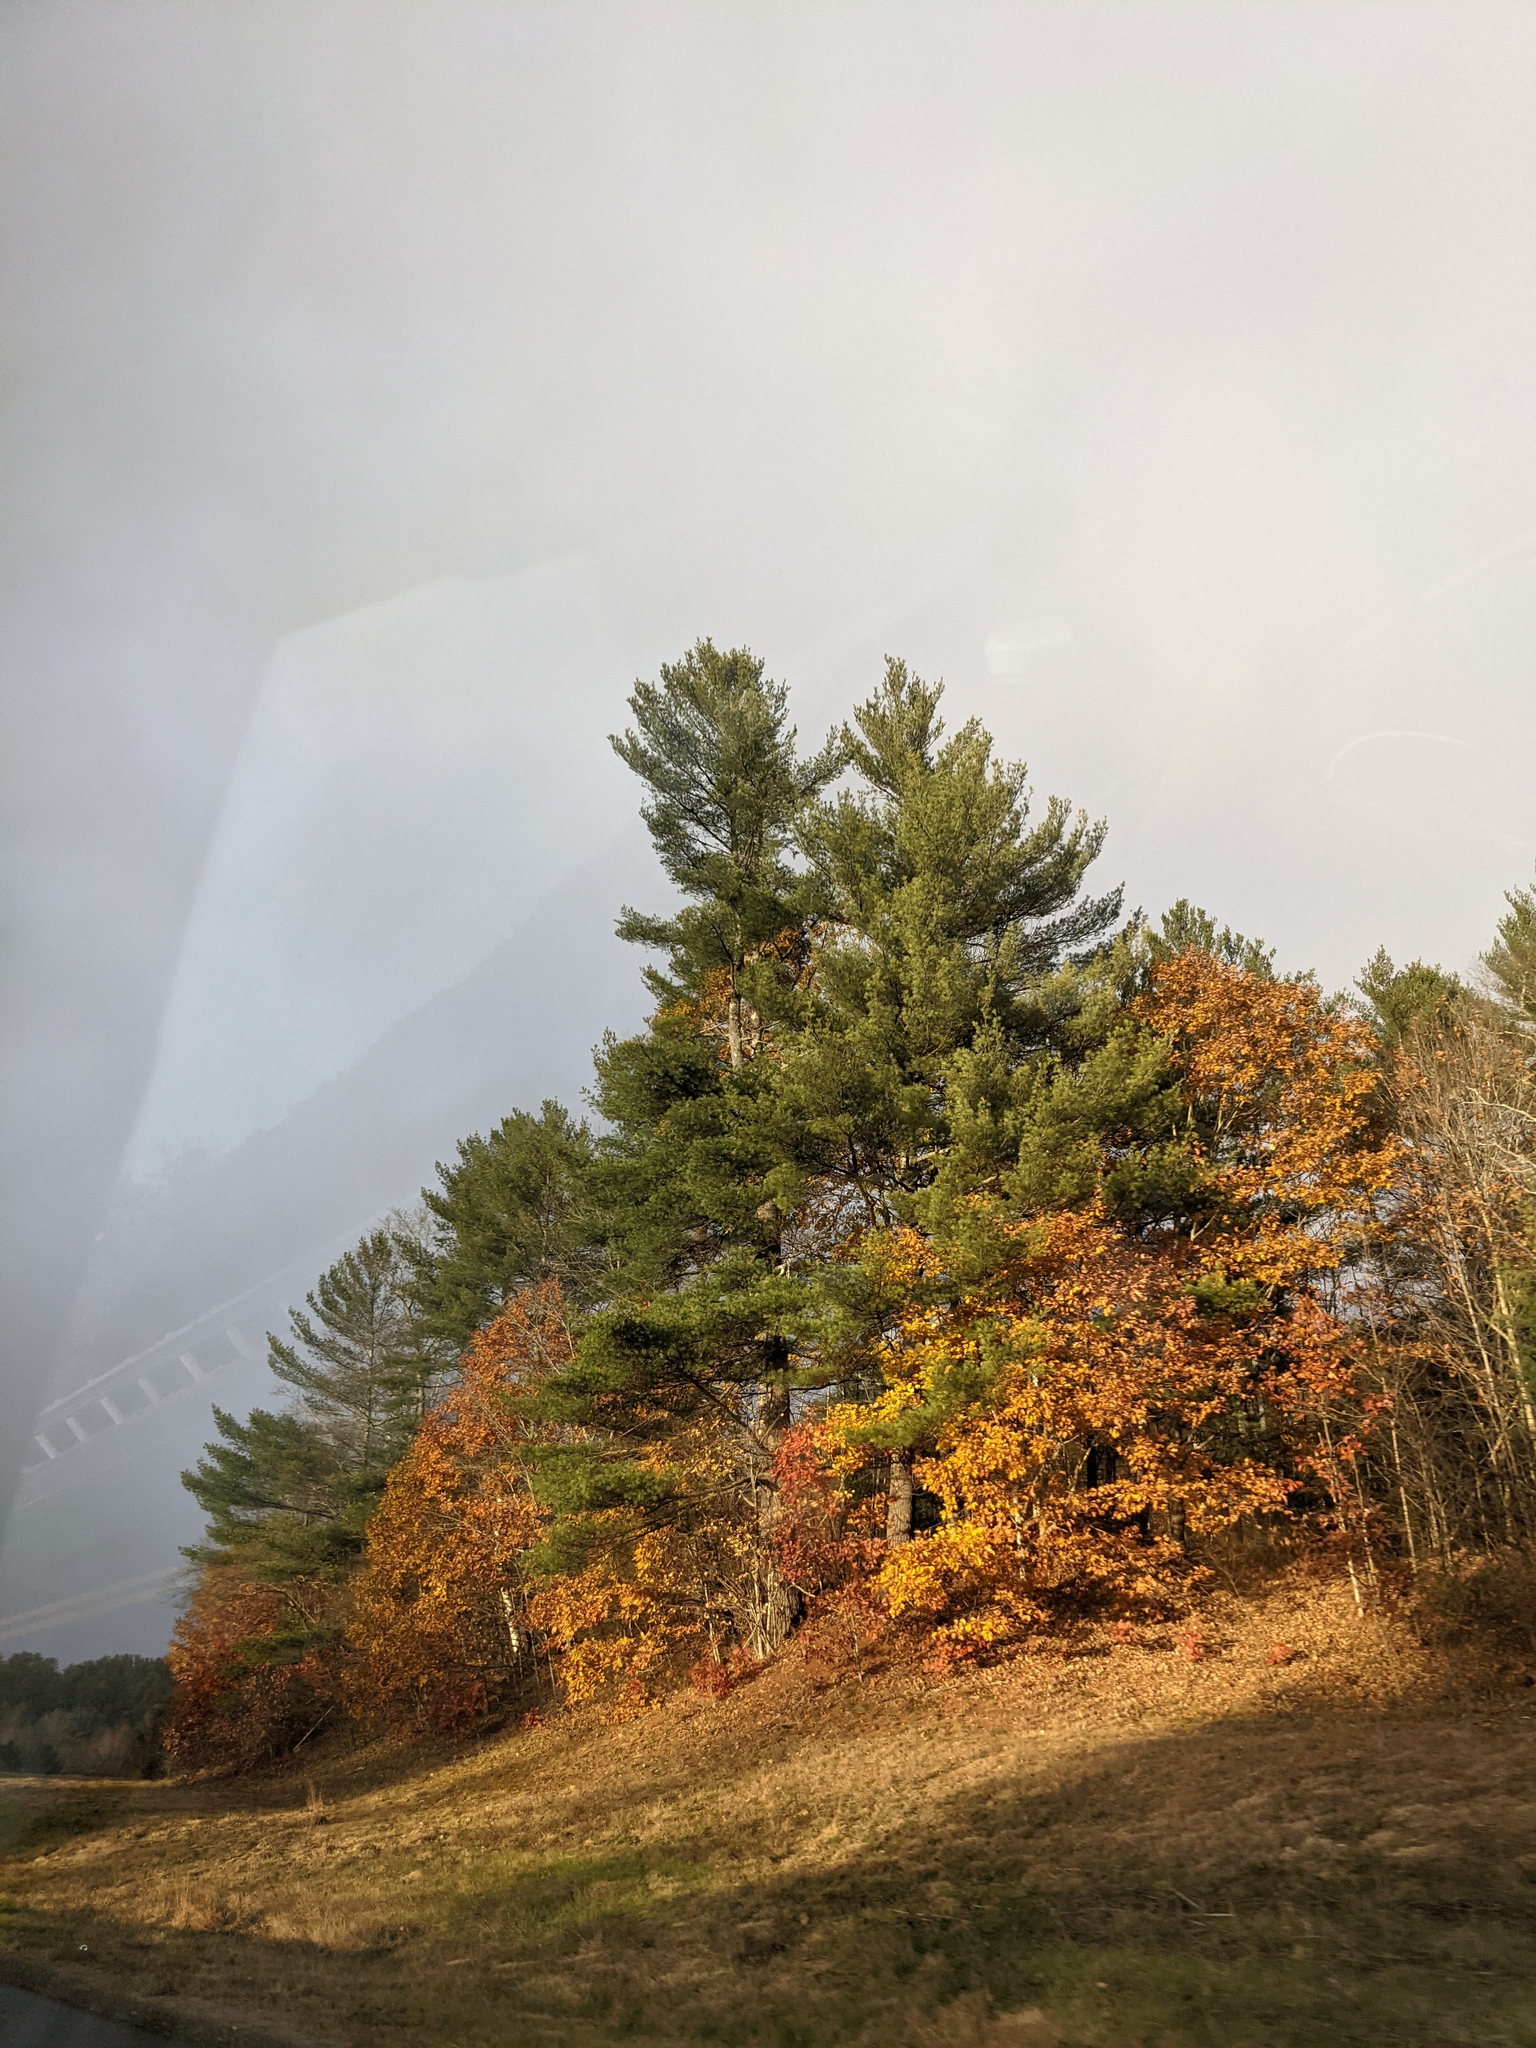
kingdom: Plantae
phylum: Tracheophyta
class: Pinopsida
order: Pinales
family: Pinaceae
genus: Pinus
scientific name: Pinus strobus
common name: Weymouth pine
